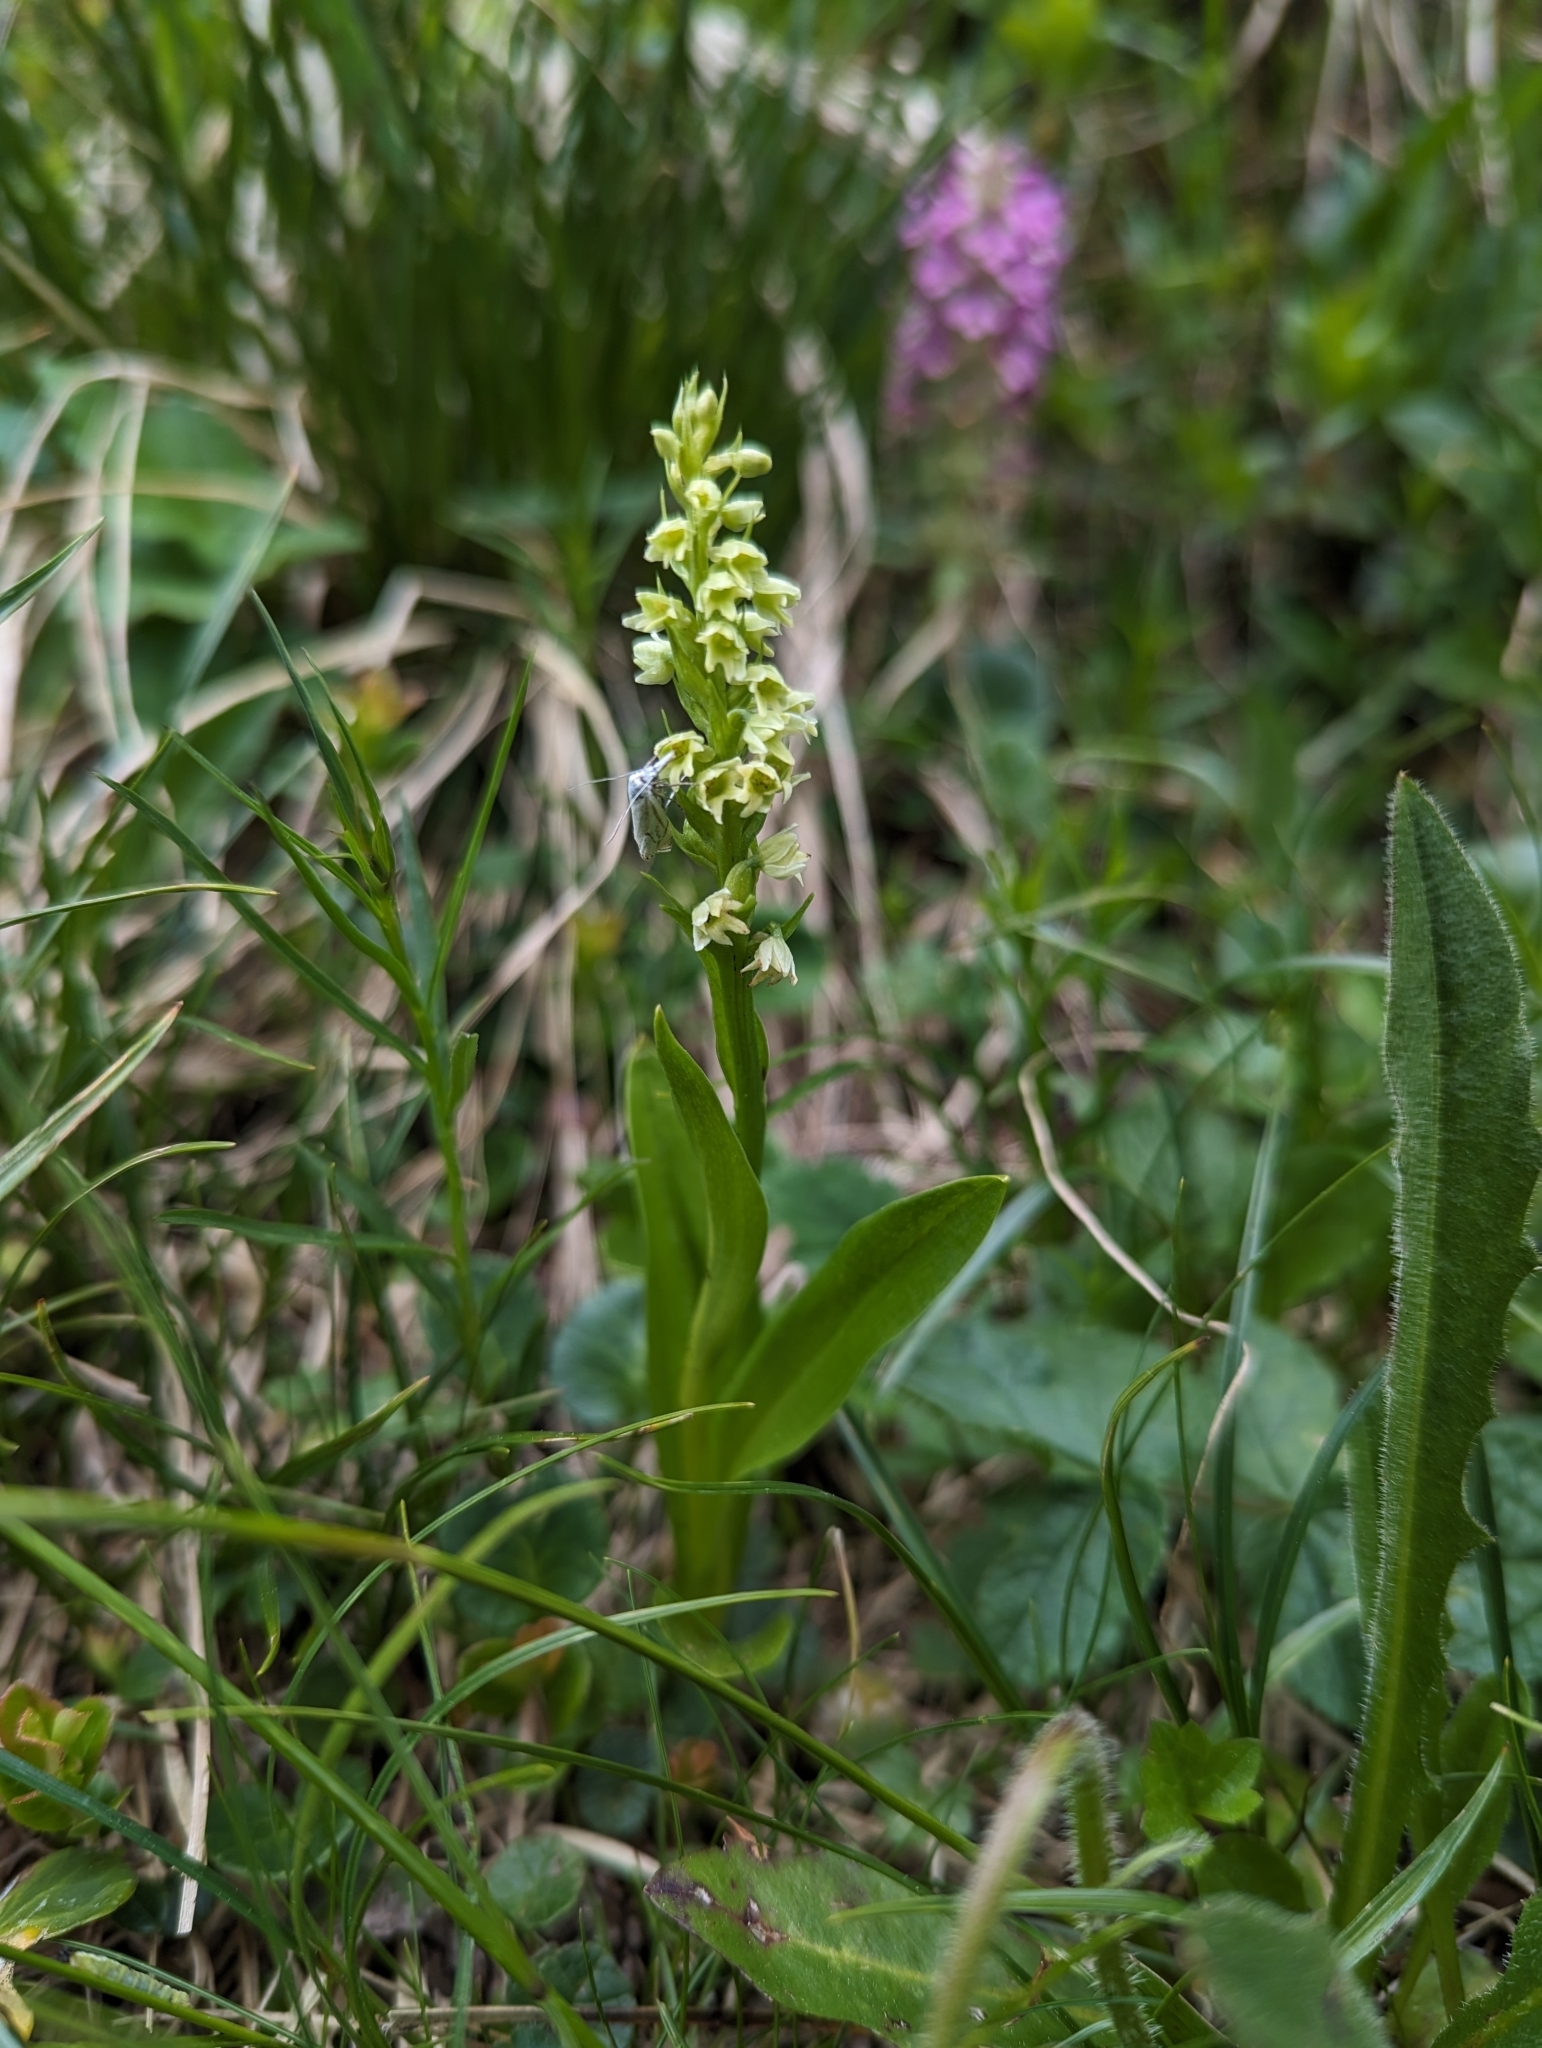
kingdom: Plantae
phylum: Tracheophyta
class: Liliopsida
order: Asparagales
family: Orchidaceae
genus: Pseudorchis
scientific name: Pseudorchis albida
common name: Small-white orchid
